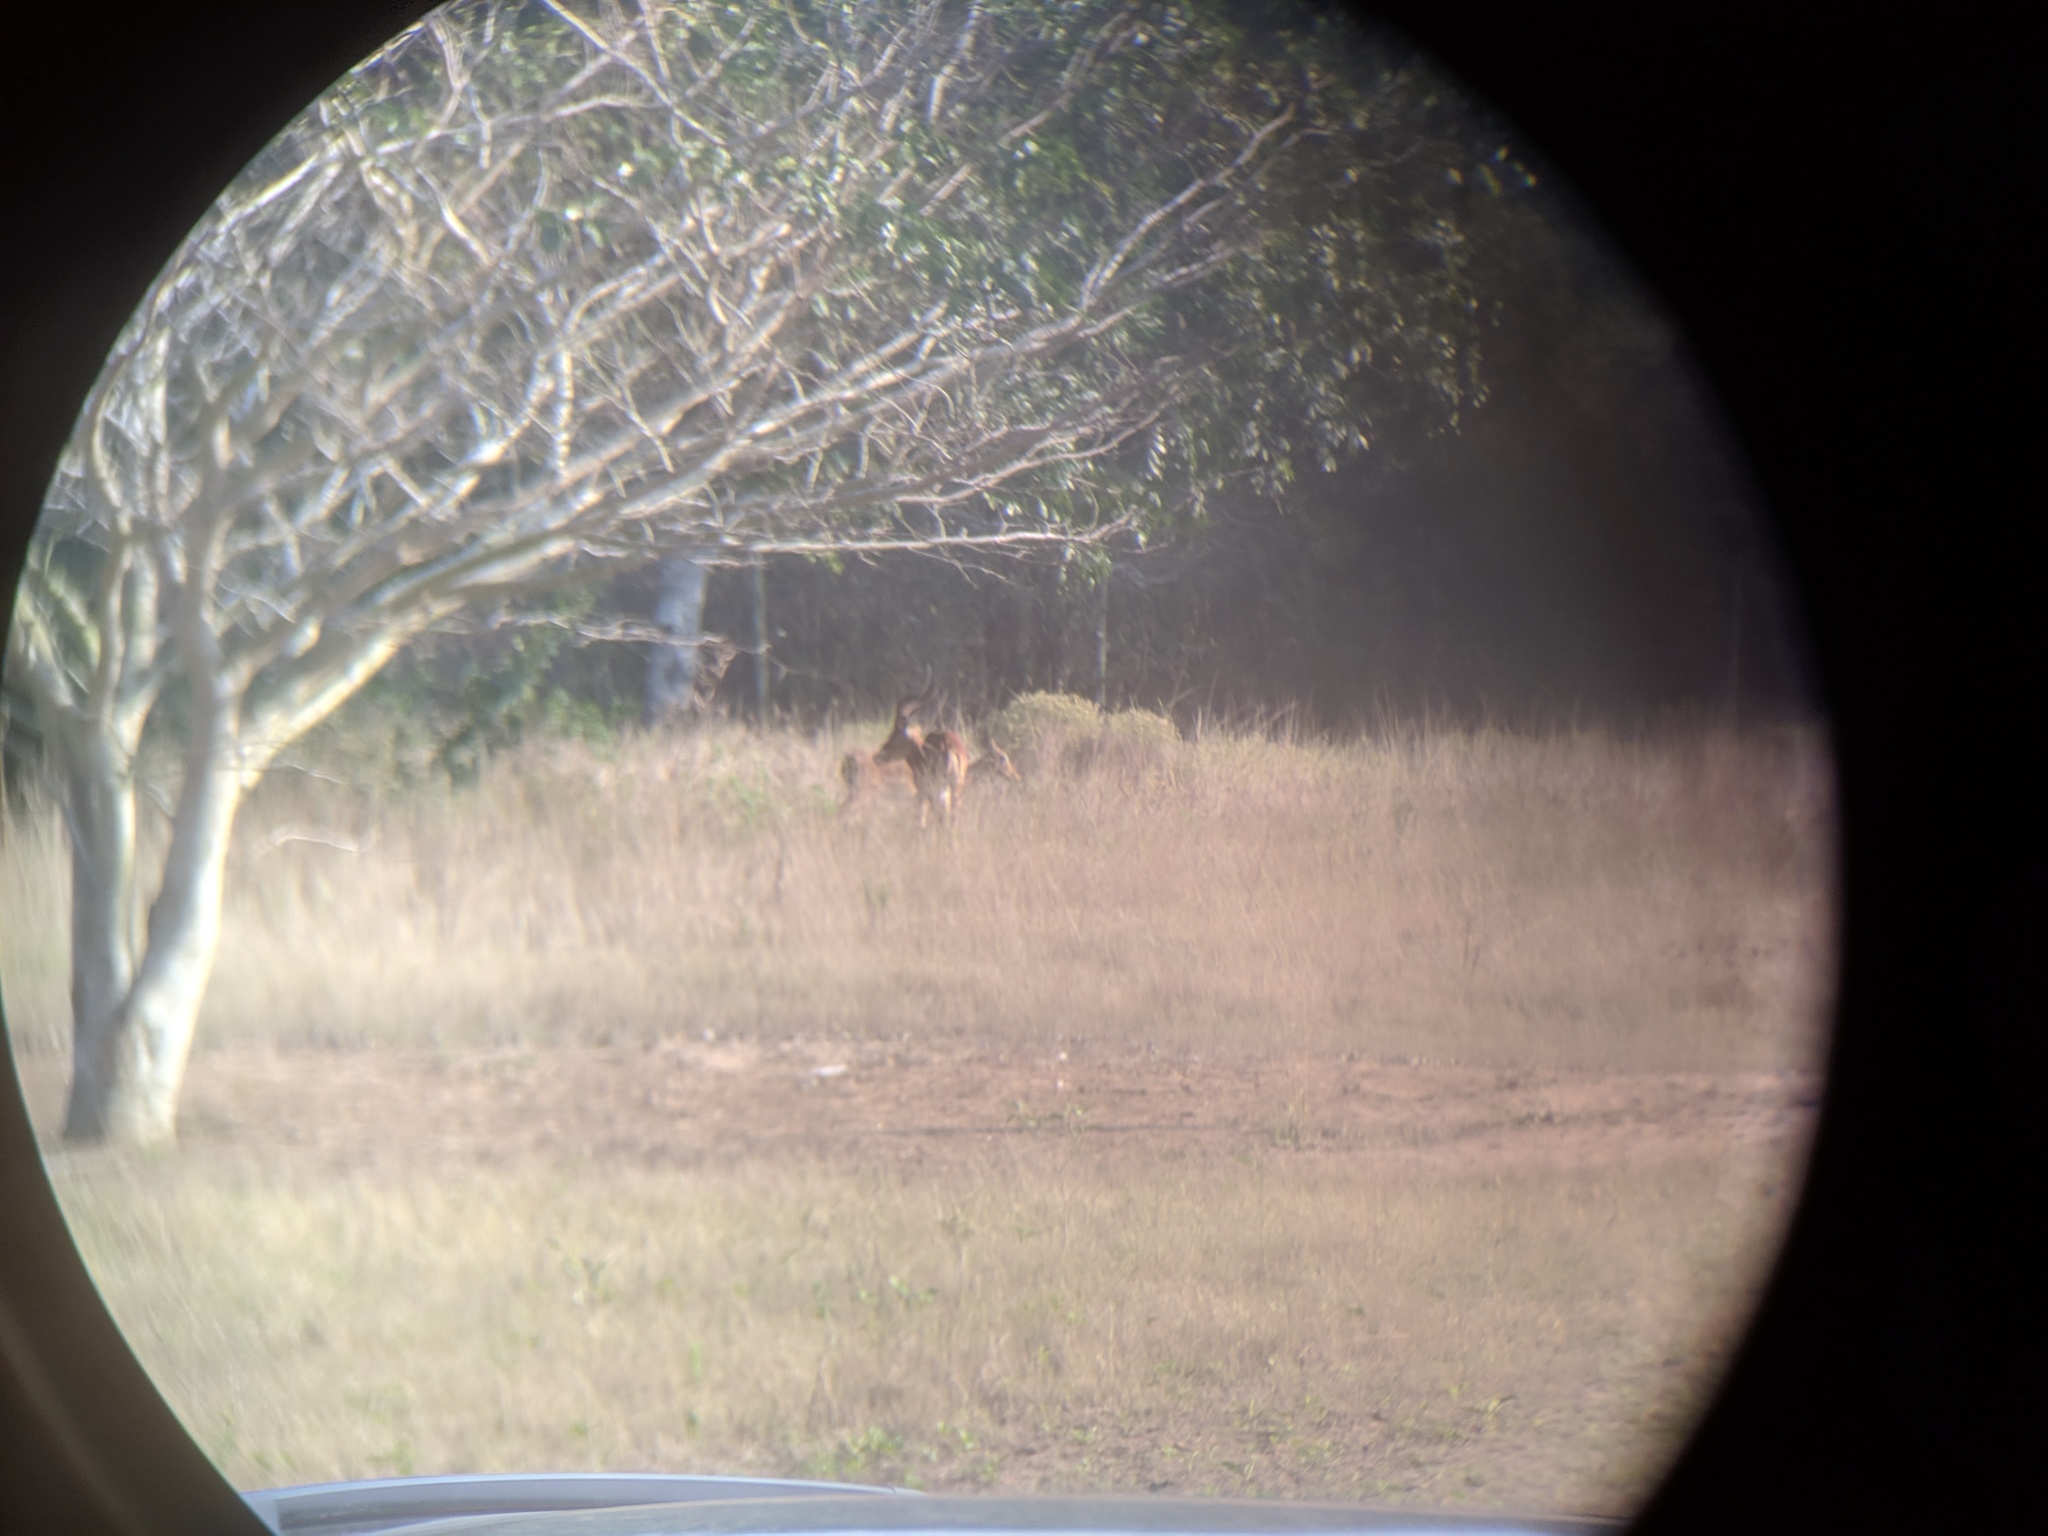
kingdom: Animalia
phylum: Chordata
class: Mammalia
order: Artiodactyla
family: Bovidae
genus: Aepyceros
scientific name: Aepyceros melampus
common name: Impala
